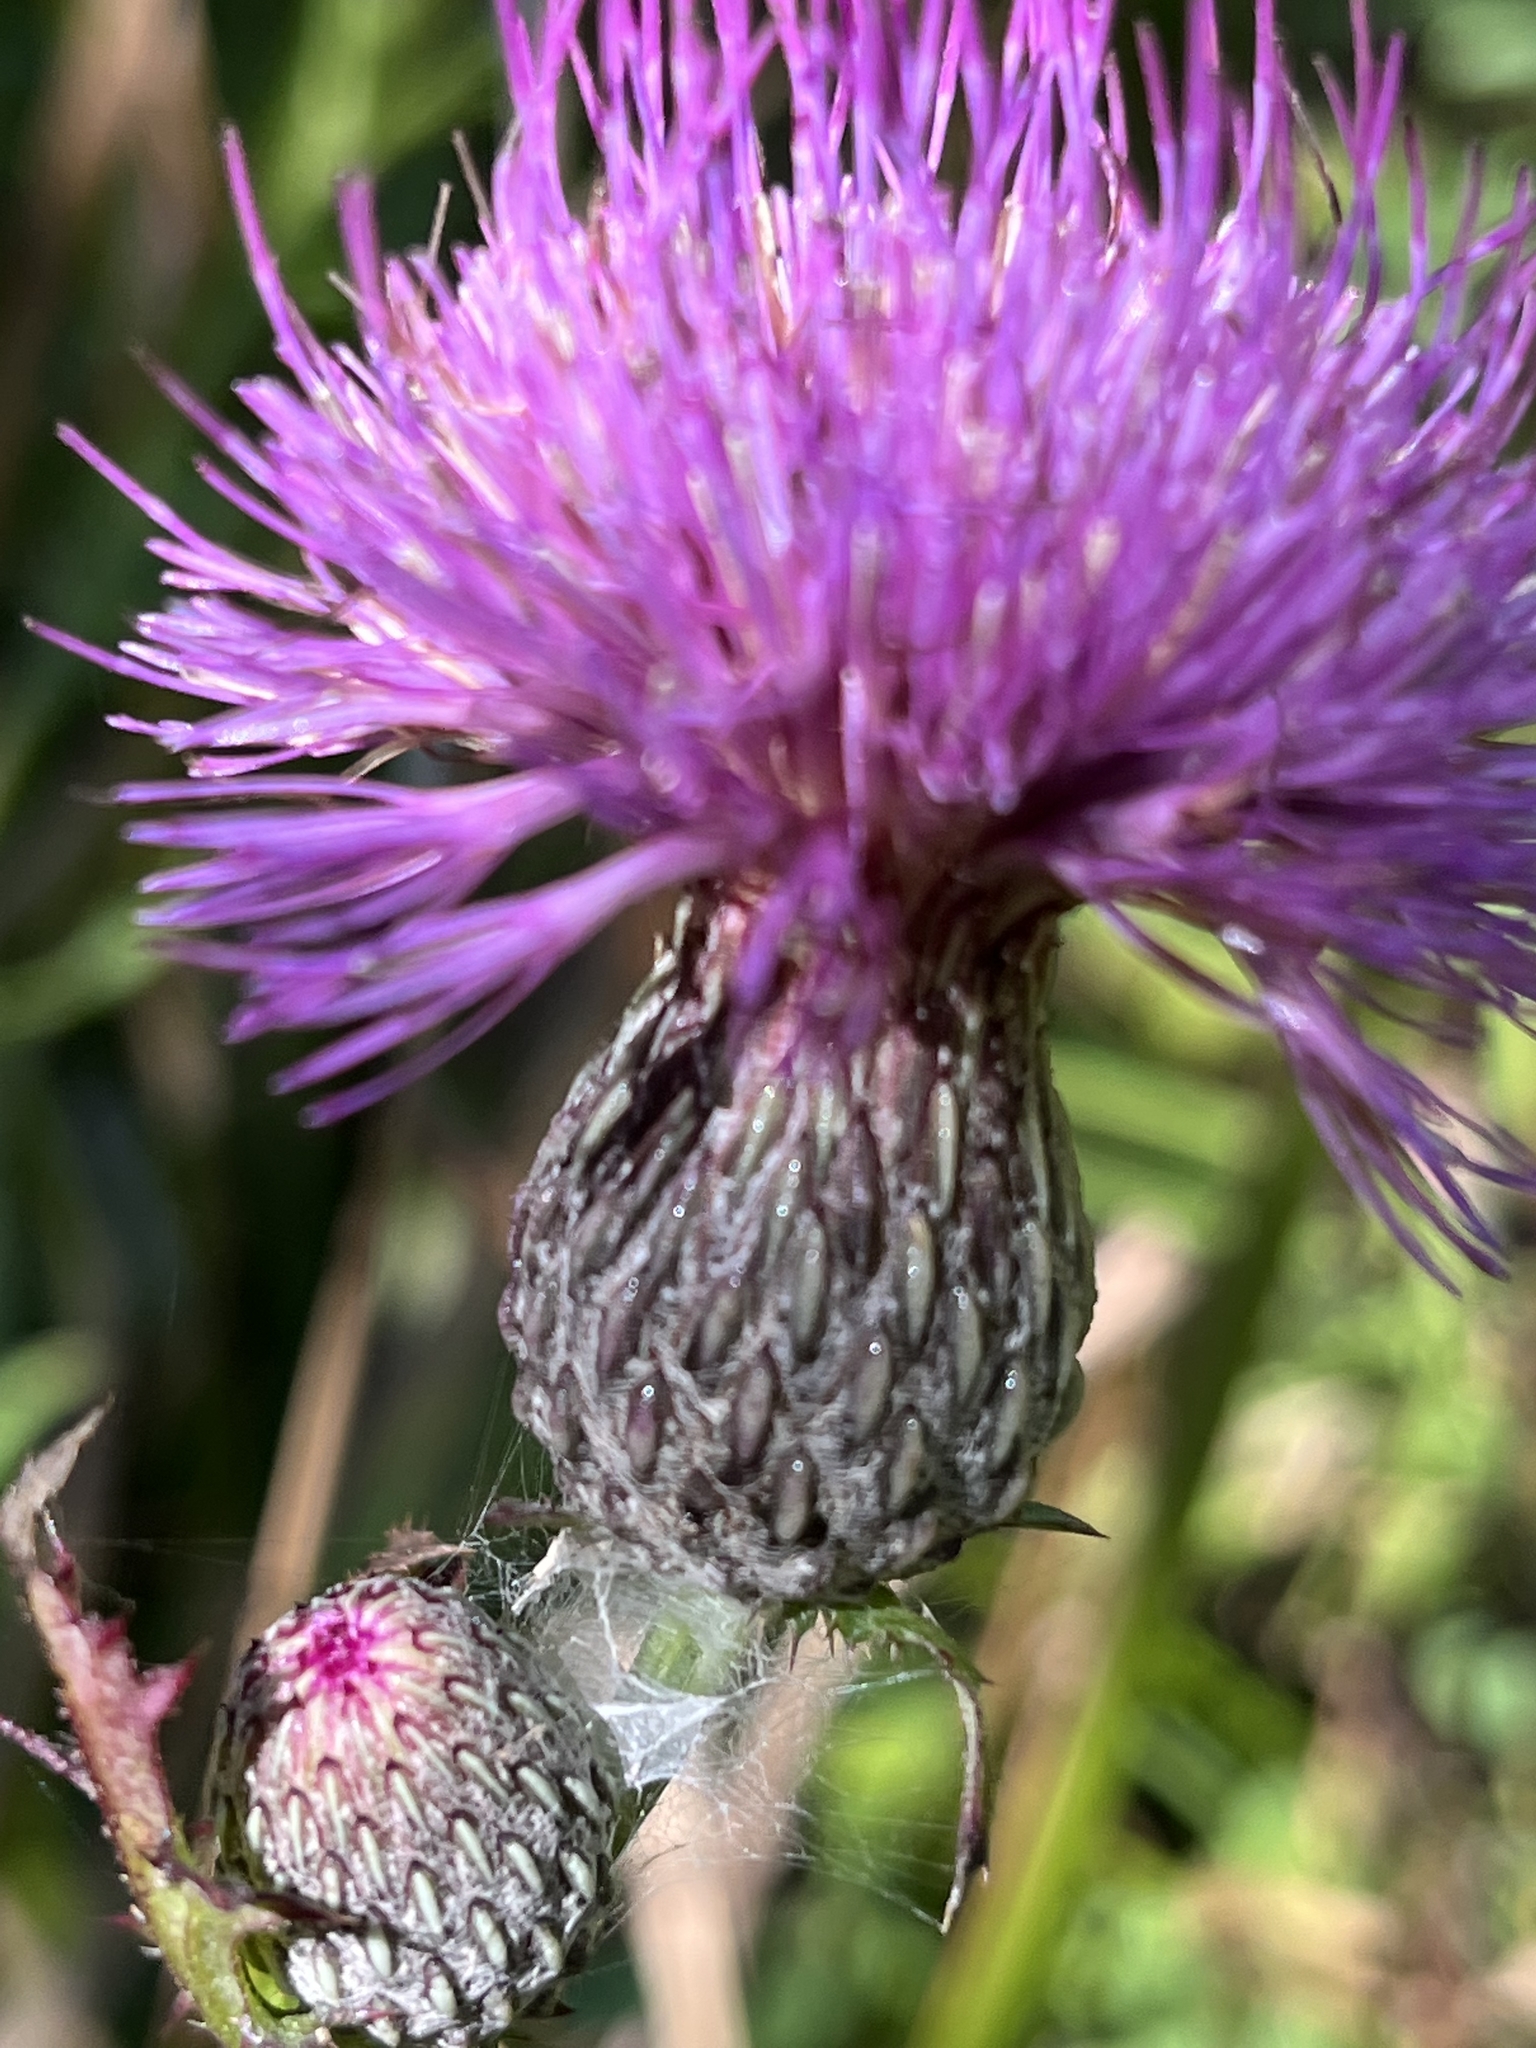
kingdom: Plantae
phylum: Tracheophyta
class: Magnoliopsida
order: Asterales
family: Asteraceae
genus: Cirsium
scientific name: Cirsium muticum
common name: Dunce-nettle
